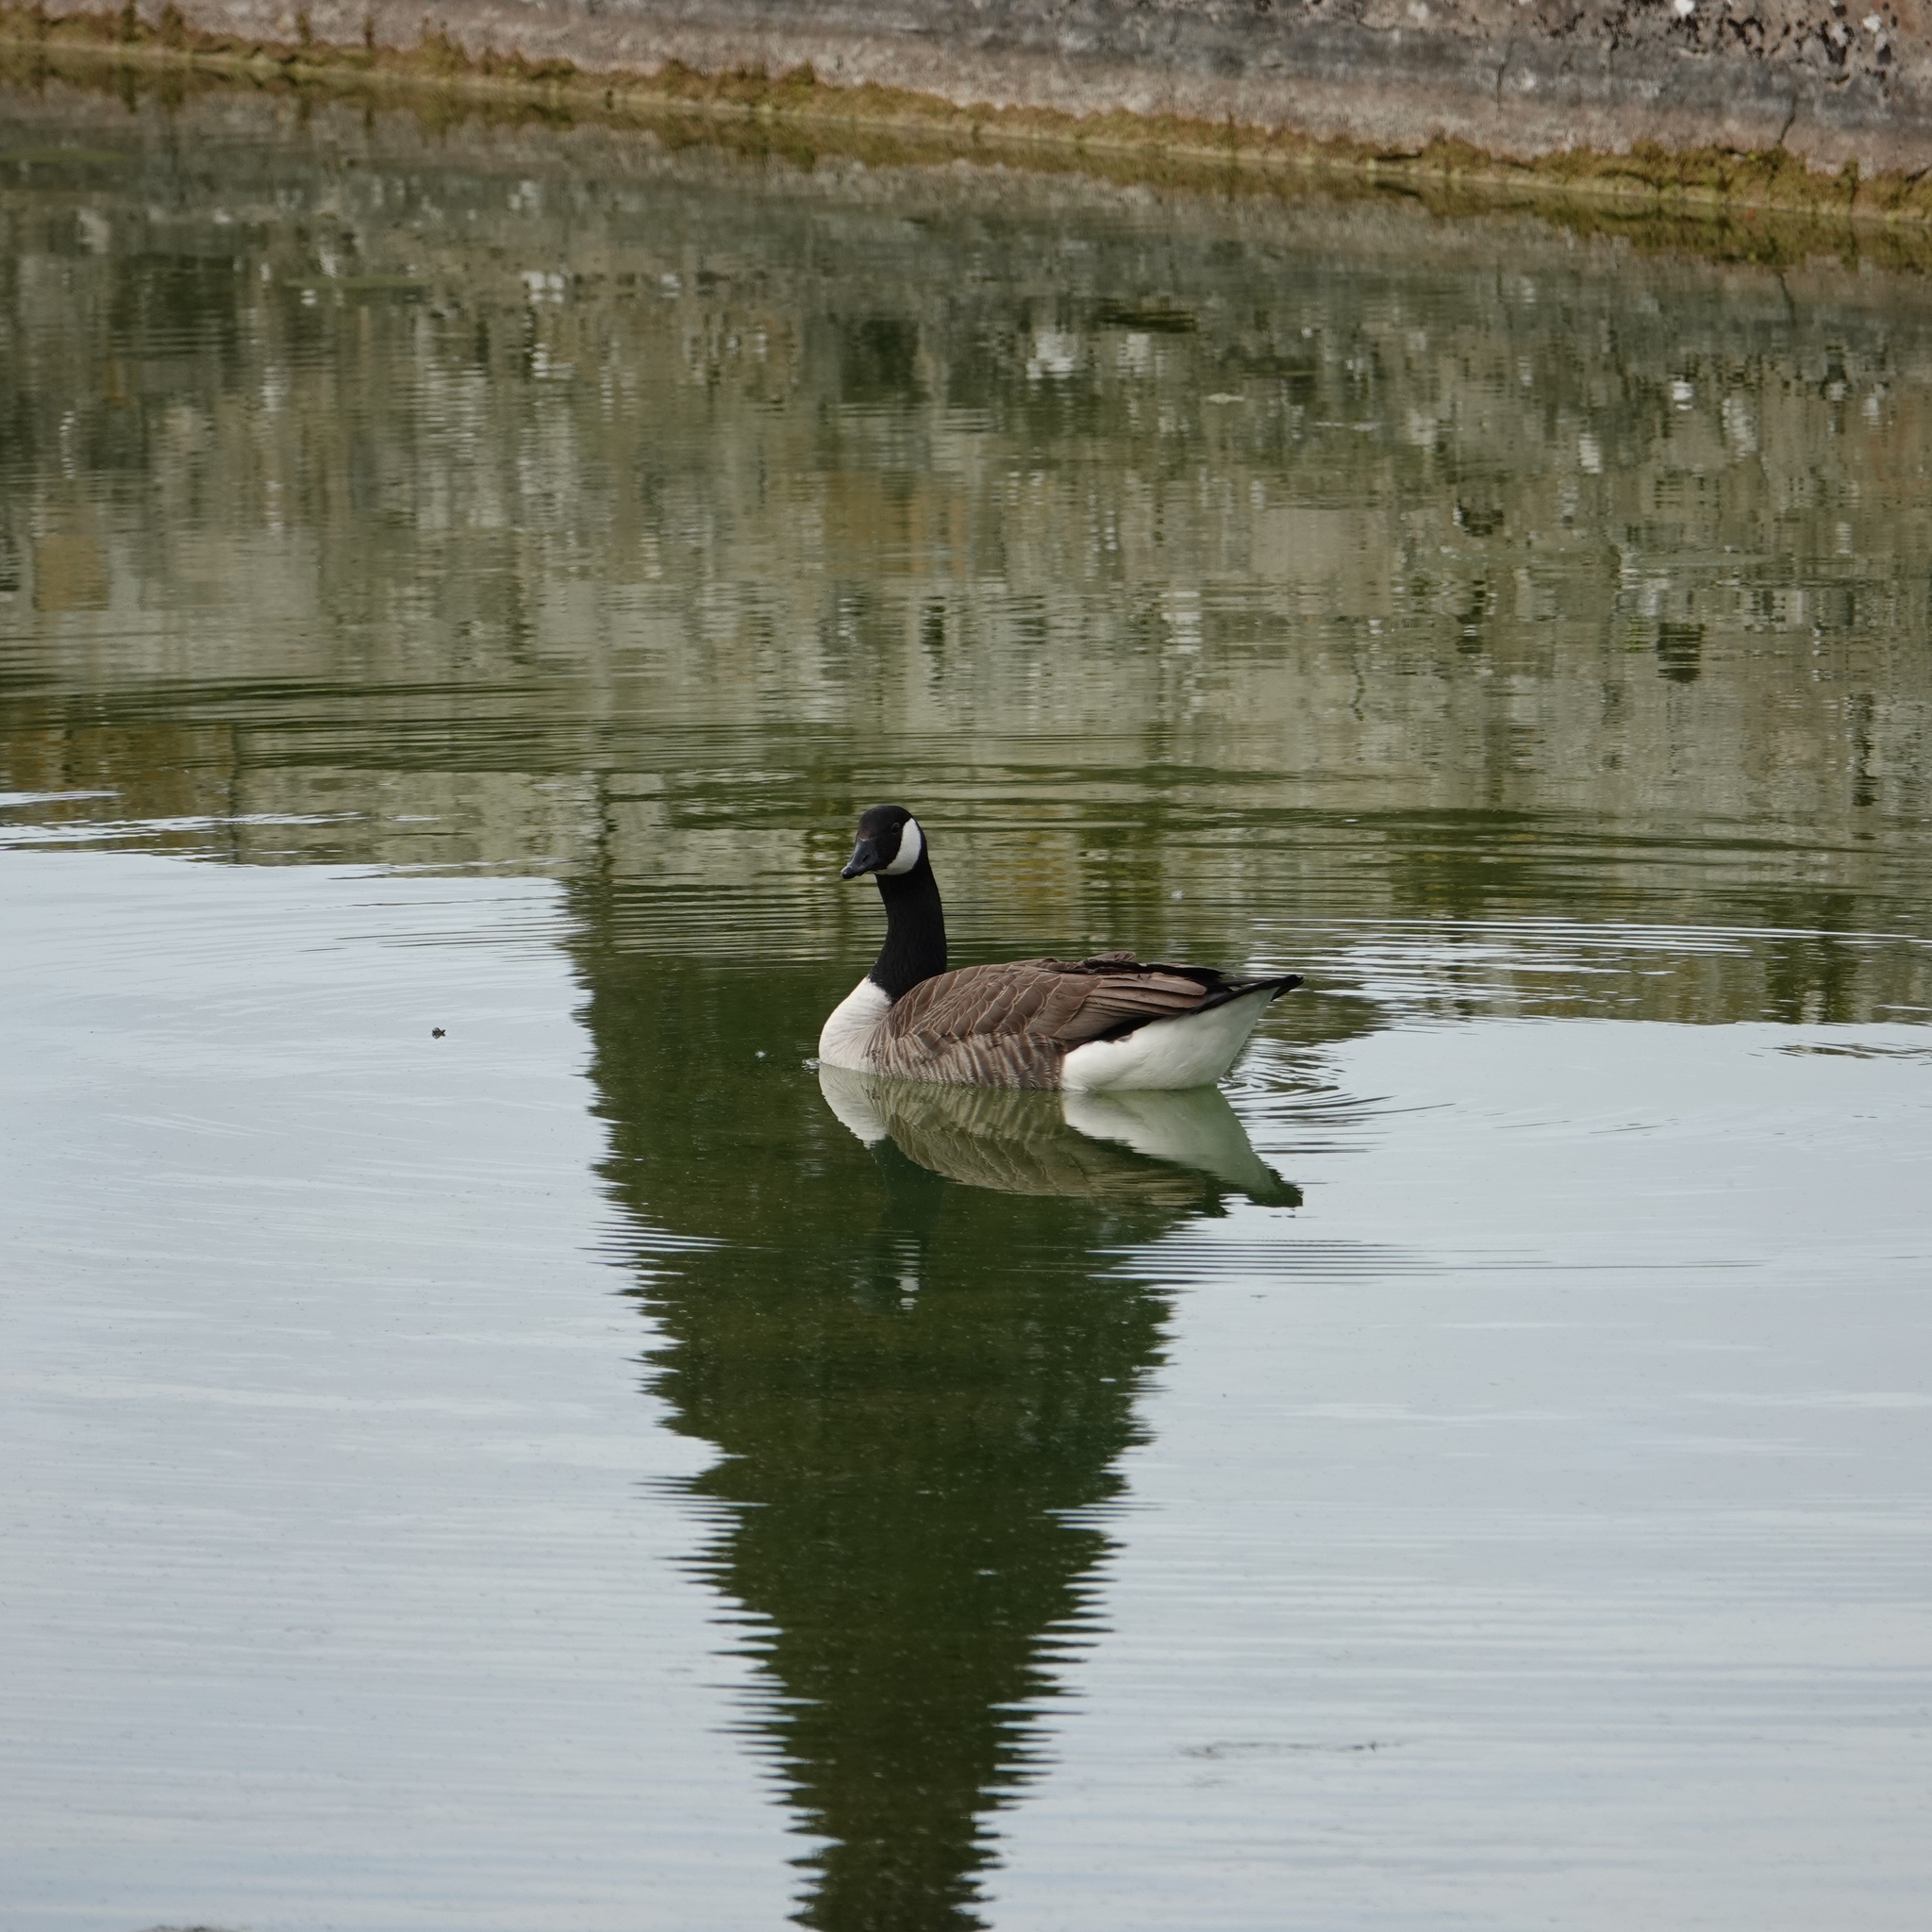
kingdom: Animalia
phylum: Chordata
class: Aves
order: Anseriformes
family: Anatidae
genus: Branta
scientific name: Branta canadensis
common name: Canada goose
